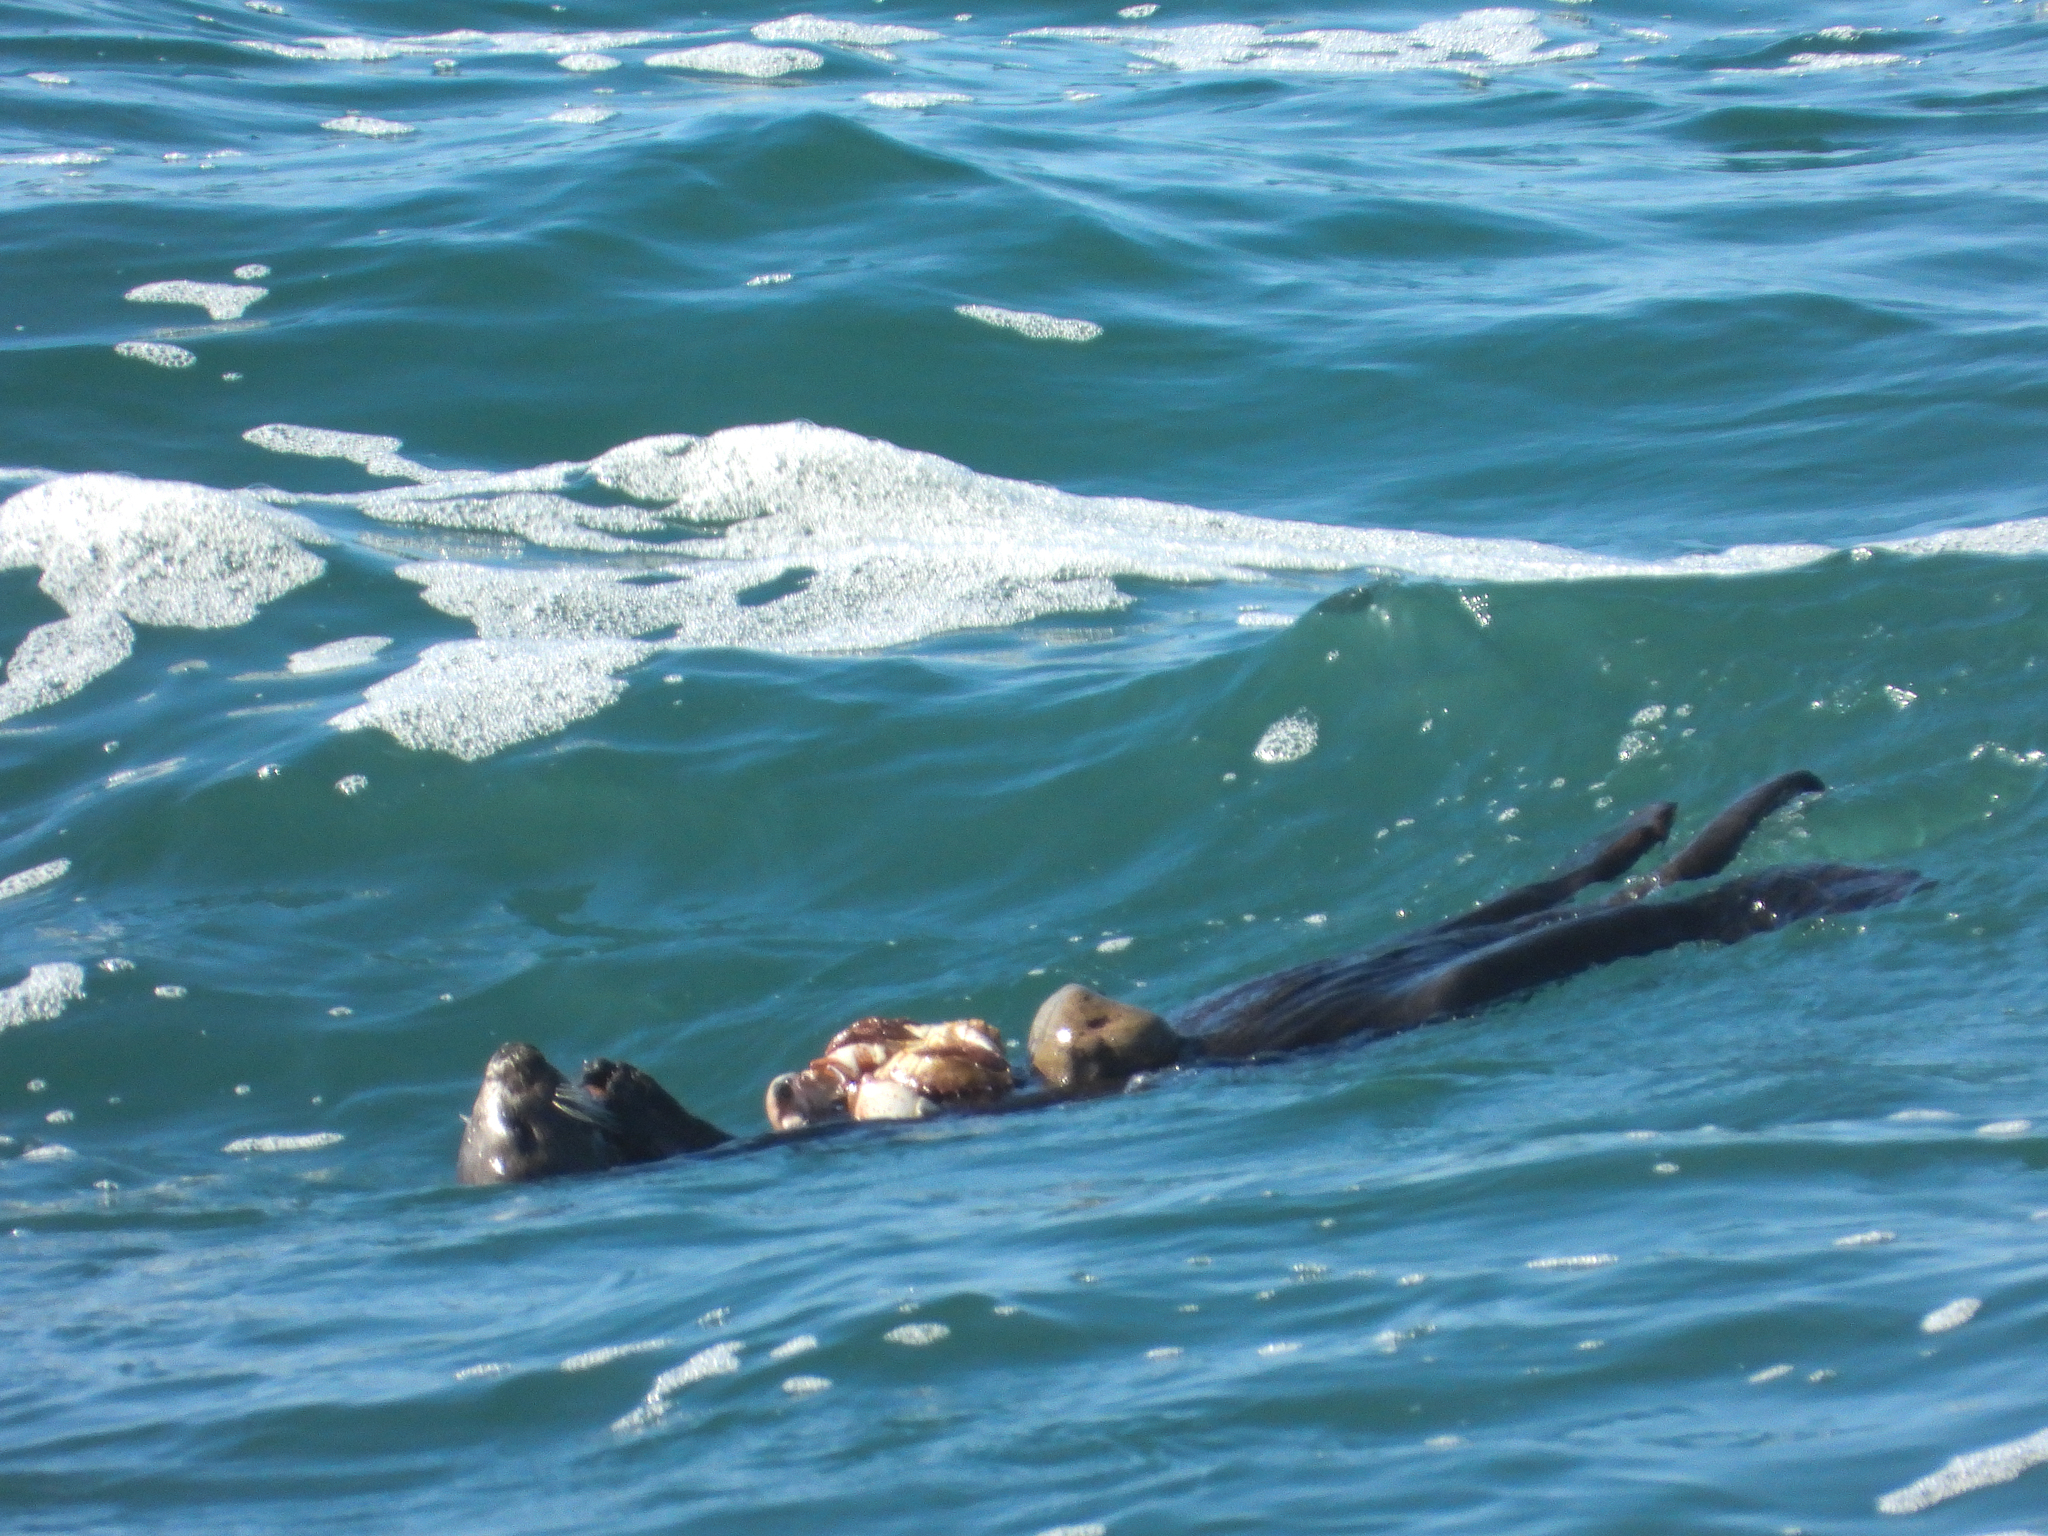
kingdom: Animalia
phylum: Arthropoda
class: Malacostraca
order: Decapoda
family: Cancridae
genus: Romaleon
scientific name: Romaleon antennarium
